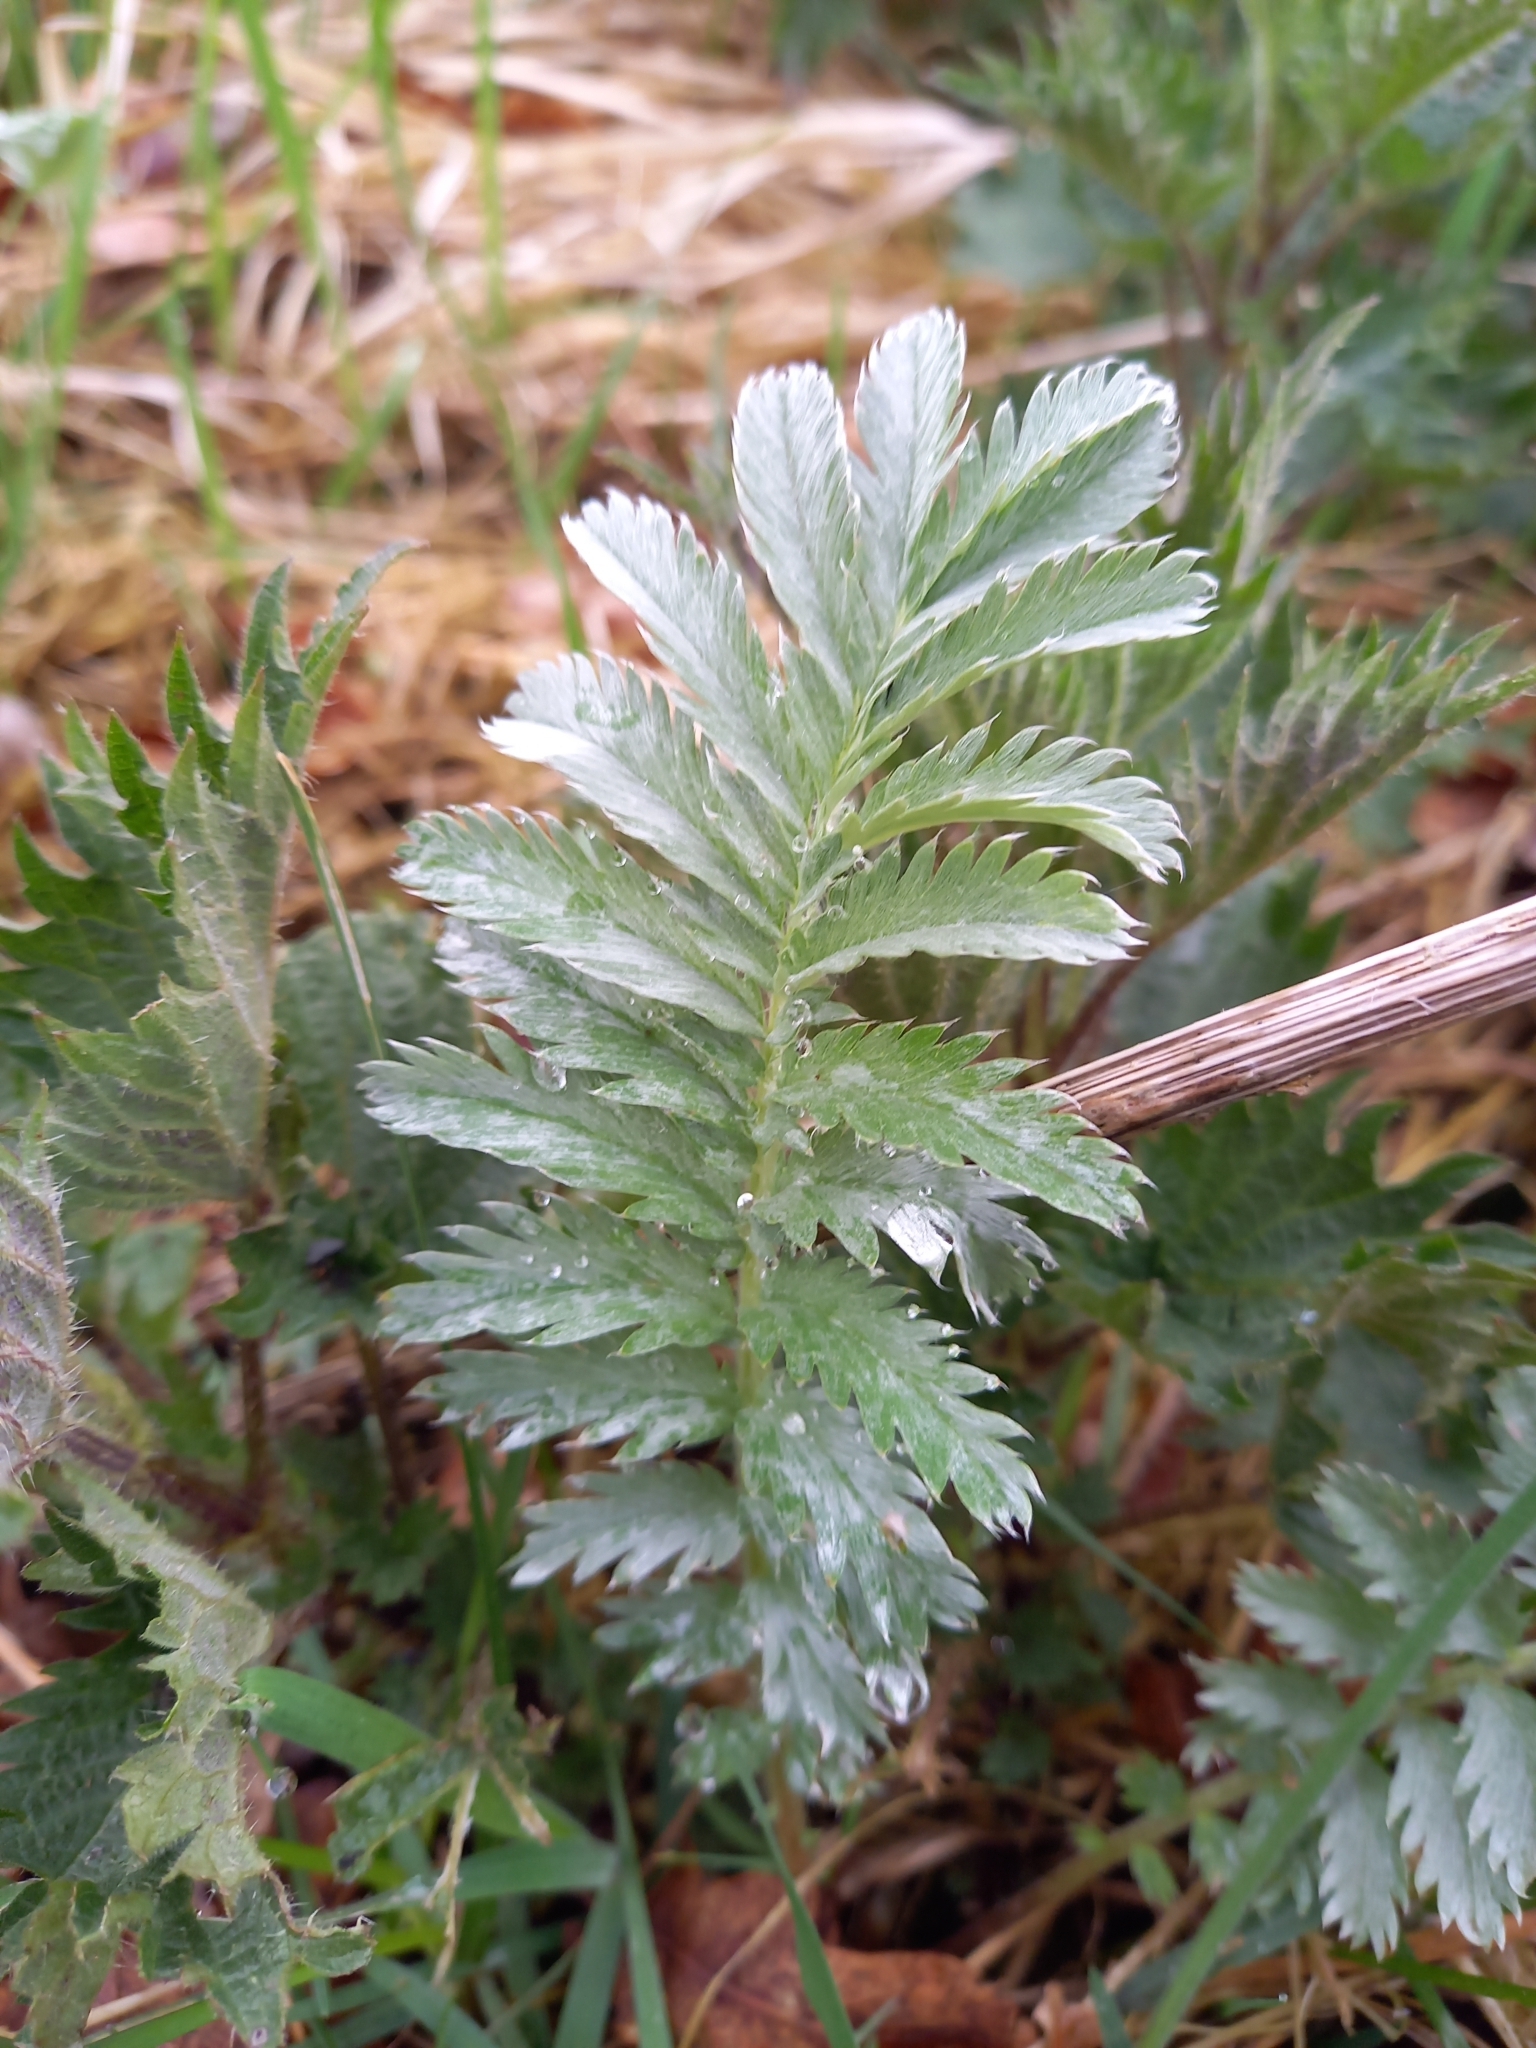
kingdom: Plantae
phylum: Tracheophyta
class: Magnoliopsida
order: Rosales
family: Rosaceae
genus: Argentina
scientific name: Argentina anserina
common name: Common silverweed
